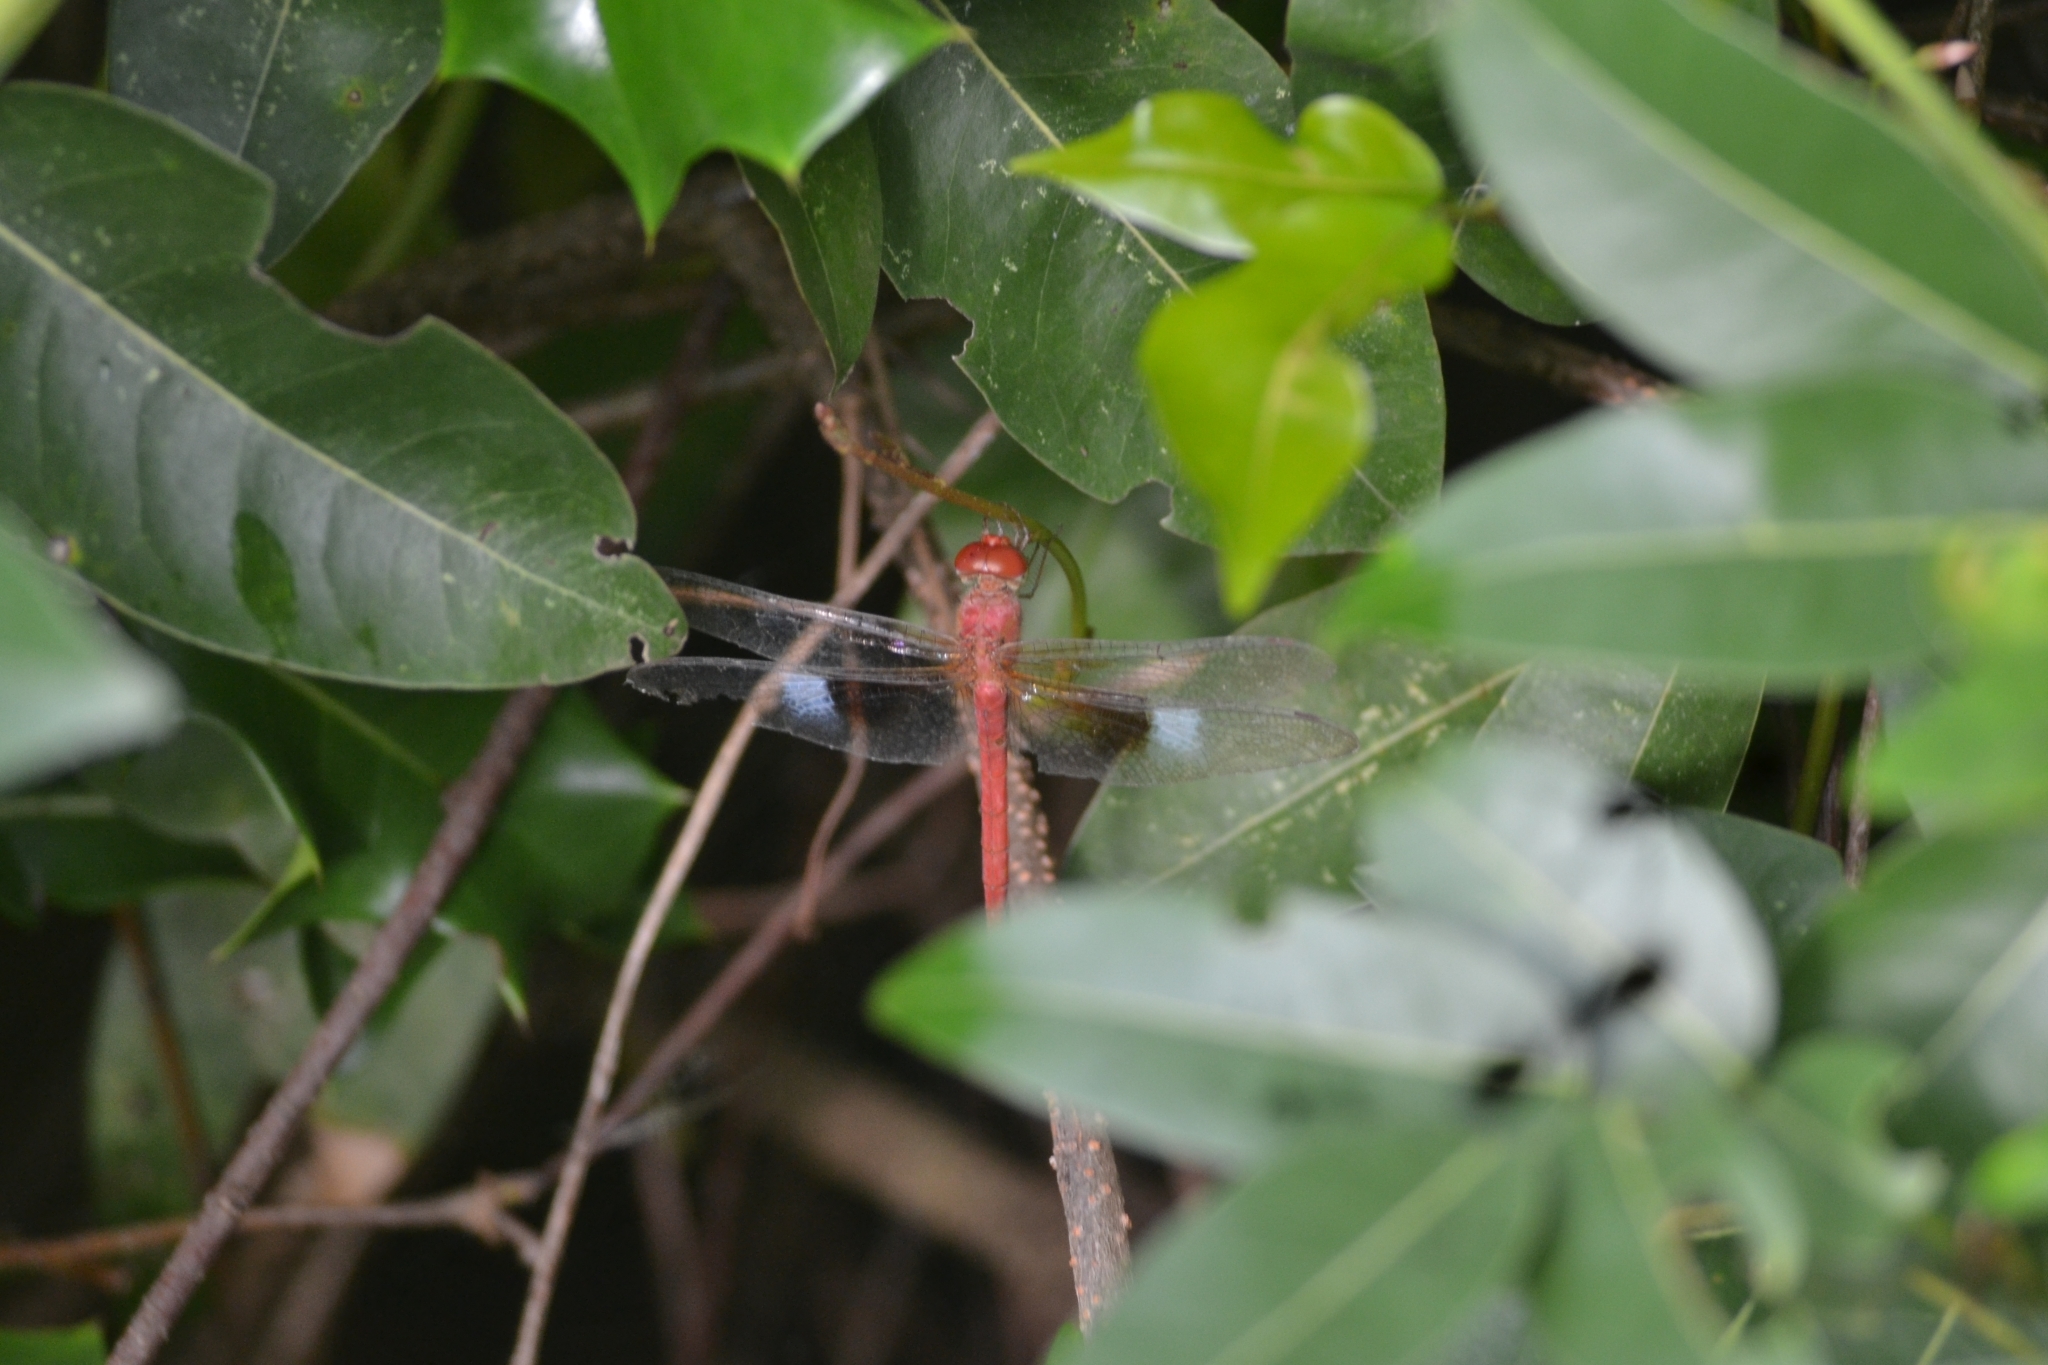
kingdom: Animalia
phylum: Arthropoda
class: Insecta
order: Odonata
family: Libellulidae
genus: Tholymis
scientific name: Tholymis tillarga
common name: Coral-tailed cloud wing
